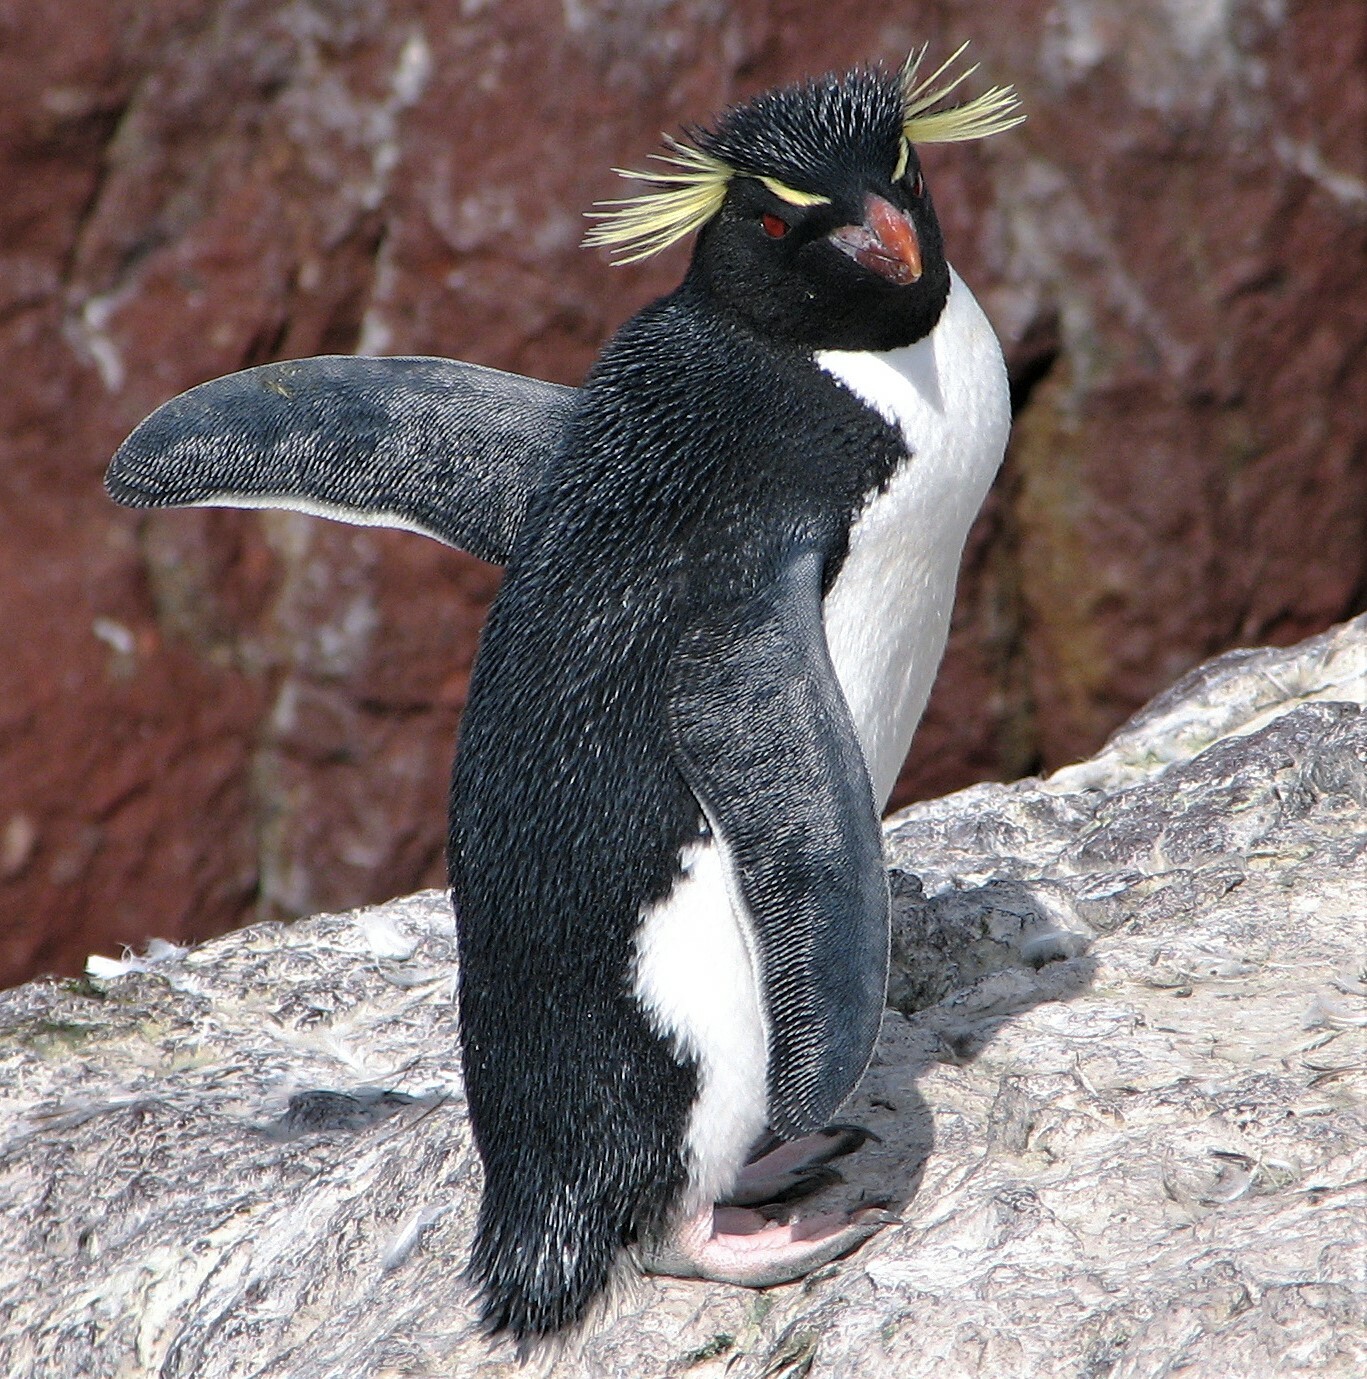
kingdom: Animalia
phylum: Chordata
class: Aves
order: Sphenisciformes
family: Spheniscidae
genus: Eudyptes
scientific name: Eudyptes chrysocome
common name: Southern rockhopper penguin
